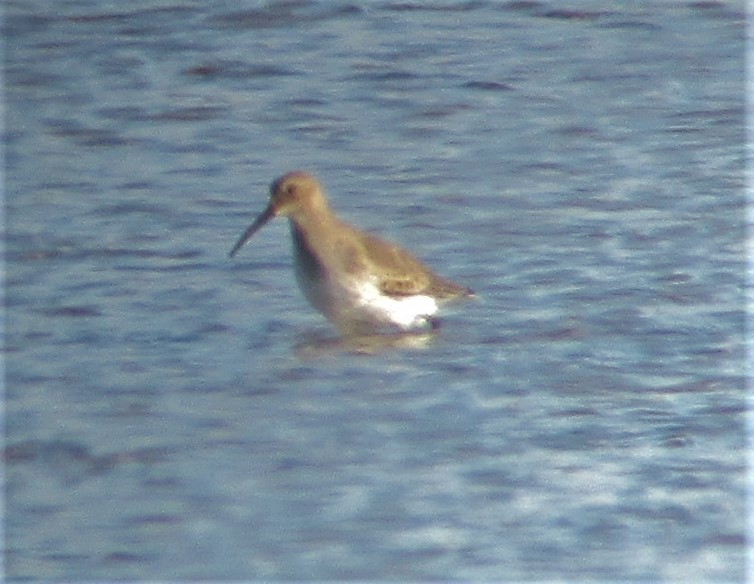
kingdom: Animalia
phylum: Chordata
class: Aves
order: Charadriiformes
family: Scolopacidae
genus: Calidris
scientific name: Calidris alpina
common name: Dunlin
